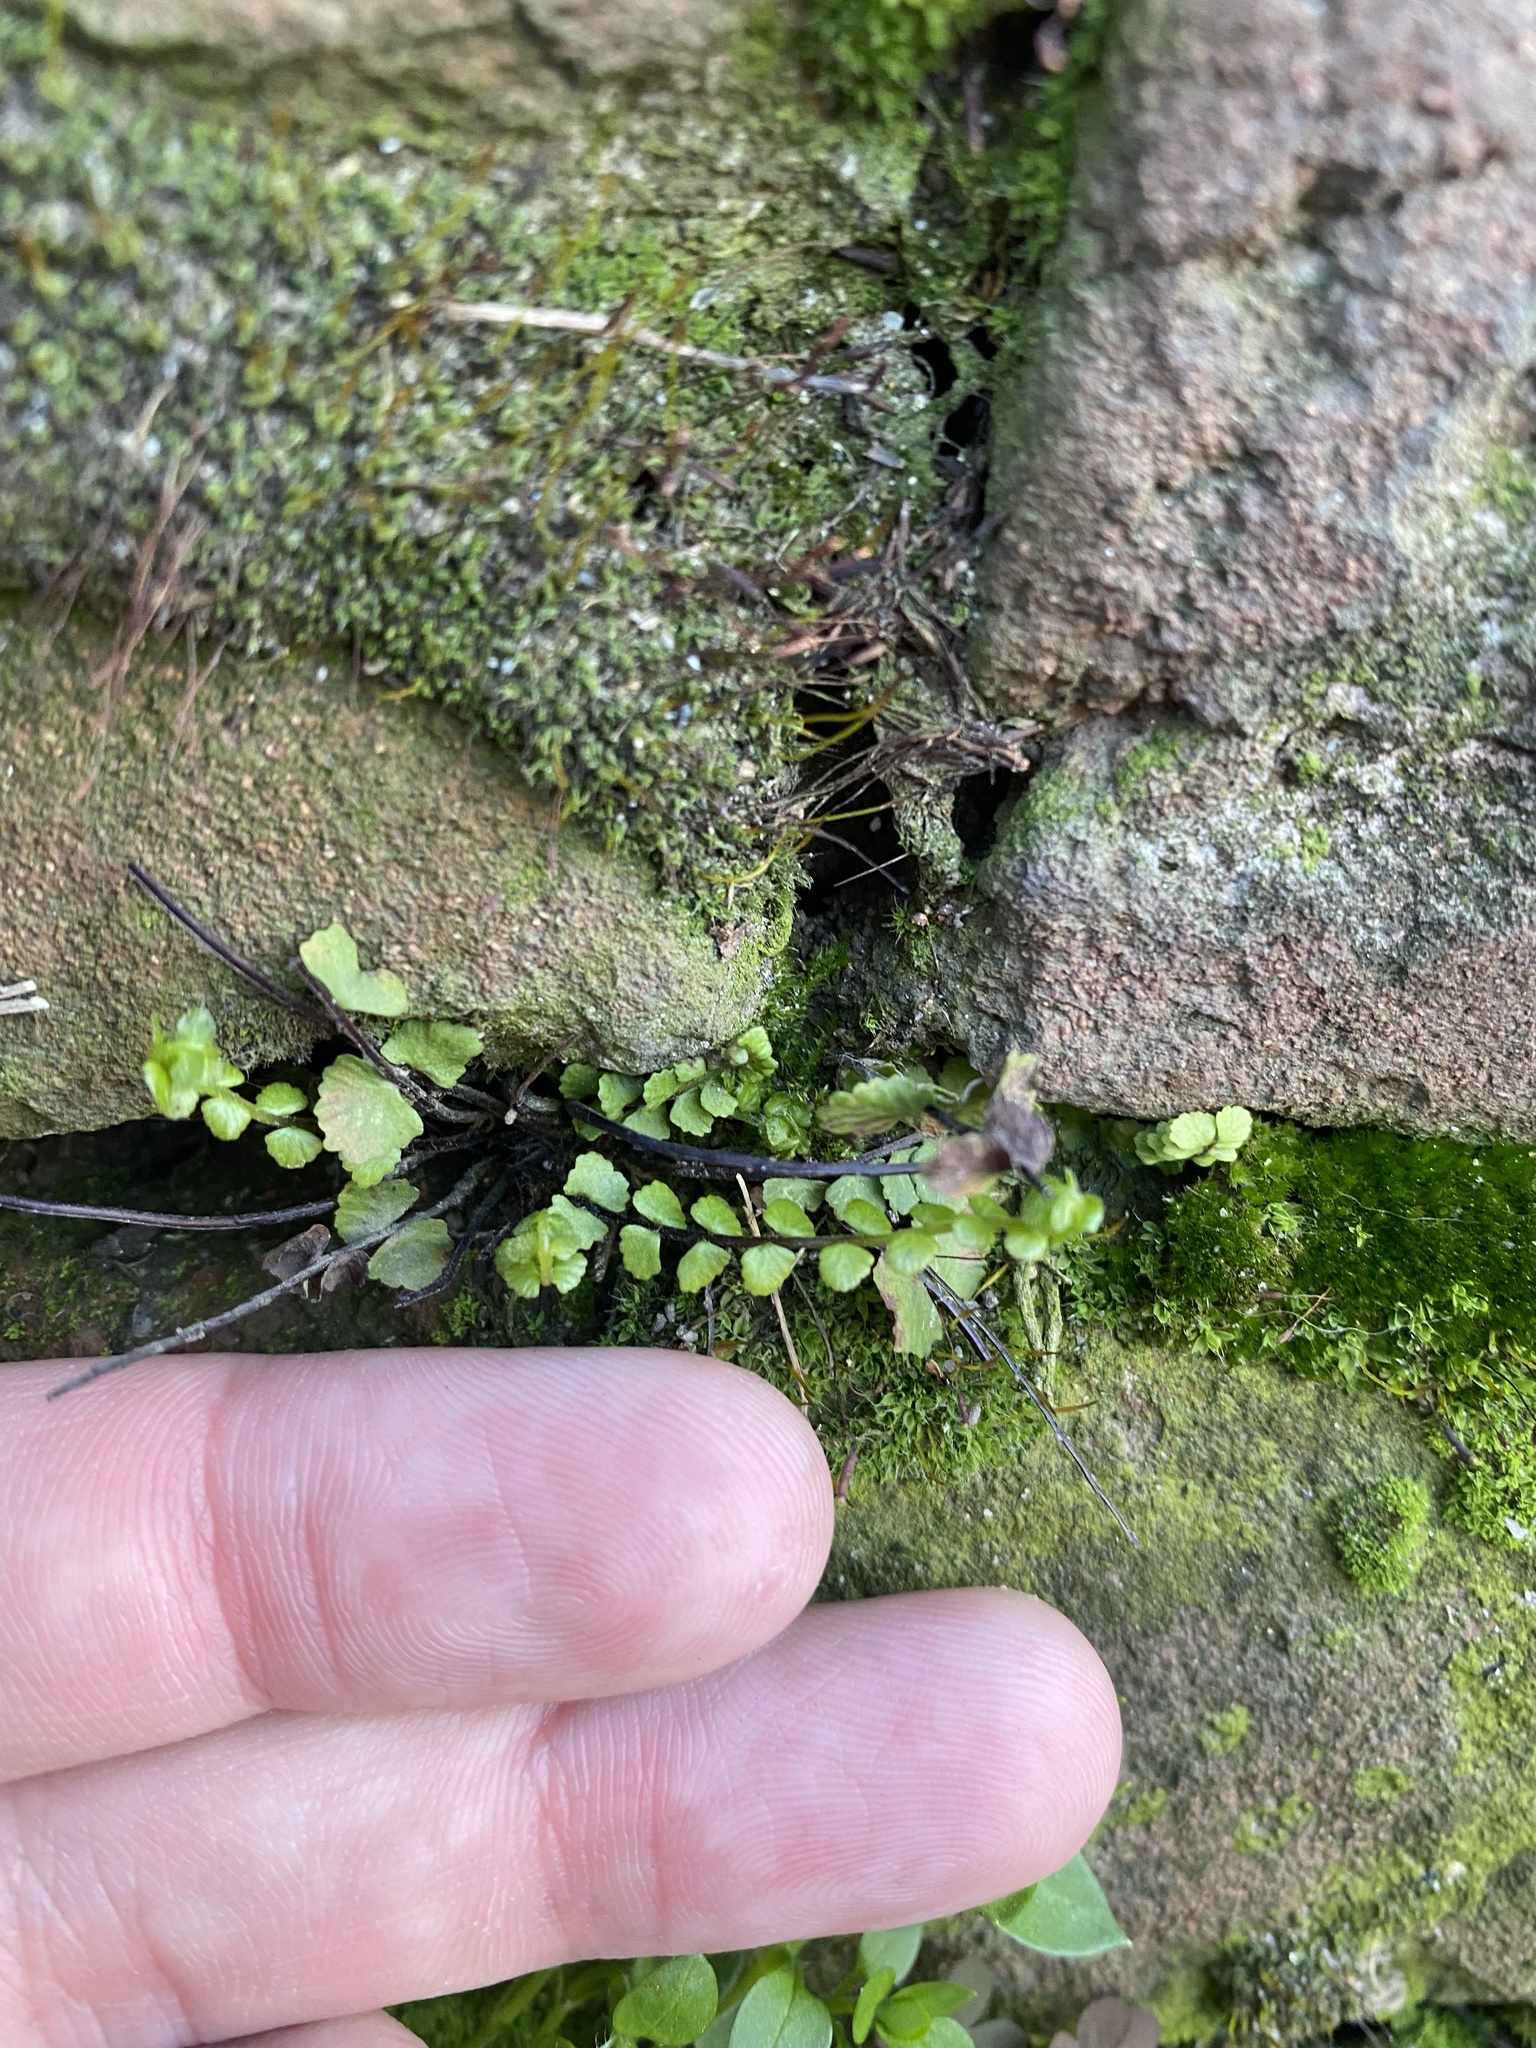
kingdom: Plantae
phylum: Tracheophyta
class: Polypodiopsida
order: Polypodiales
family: Aspleniaceae
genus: Asplenium
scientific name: Asplenium trichomanes
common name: Maidenhair spleenwort
